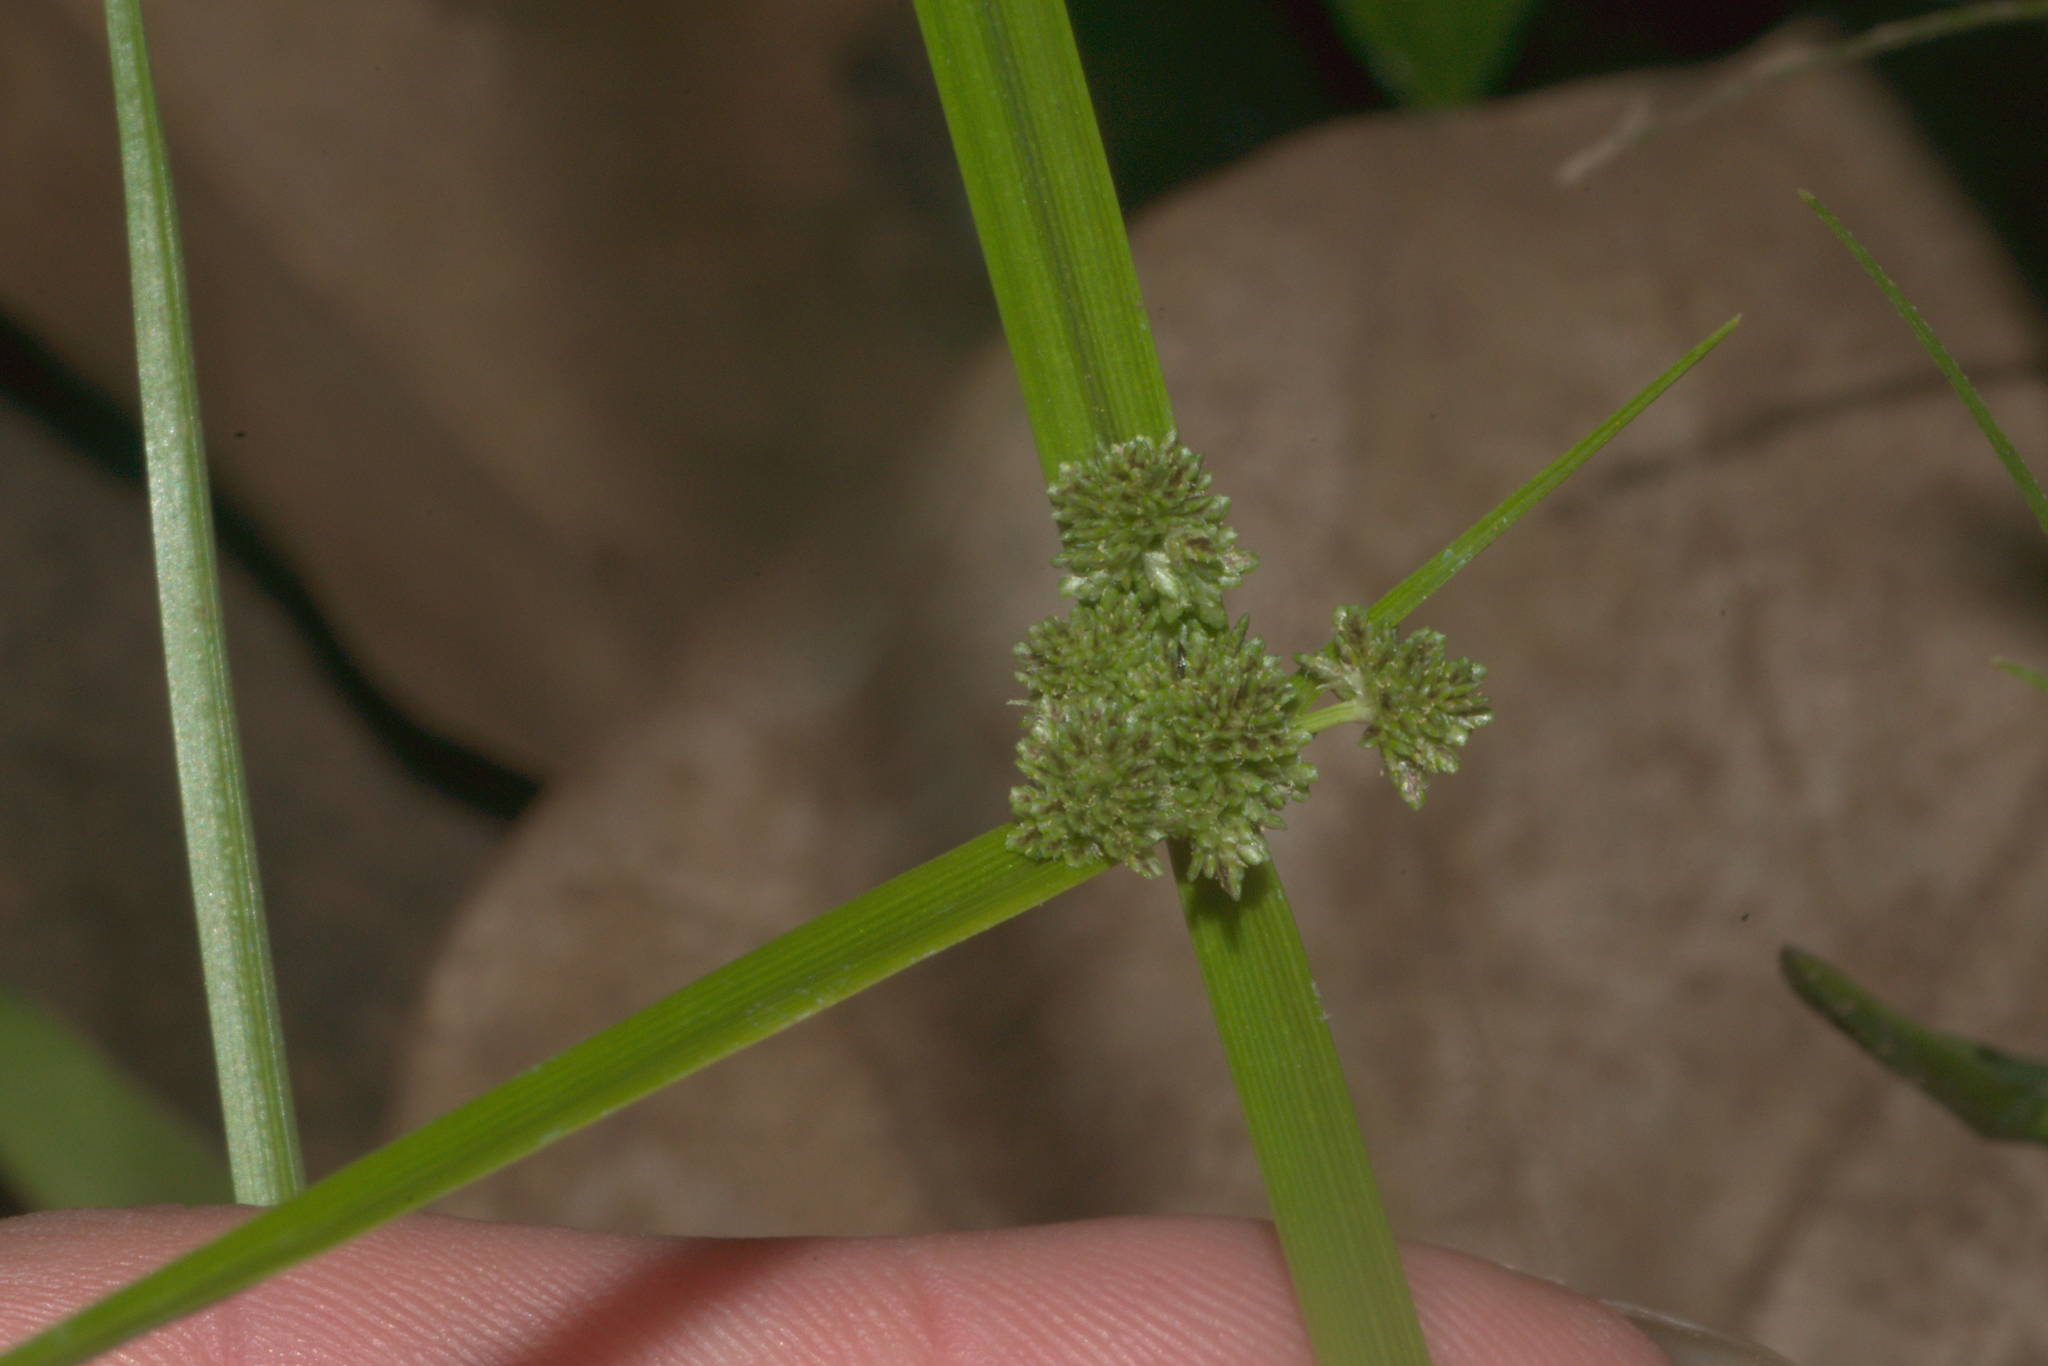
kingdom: Plantae
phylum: Tracheophyta
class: Liliopsida
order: Poales
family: Cyperaceae
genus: Cyperus
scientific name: Cyperus difformis
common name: Variable flatsedge
